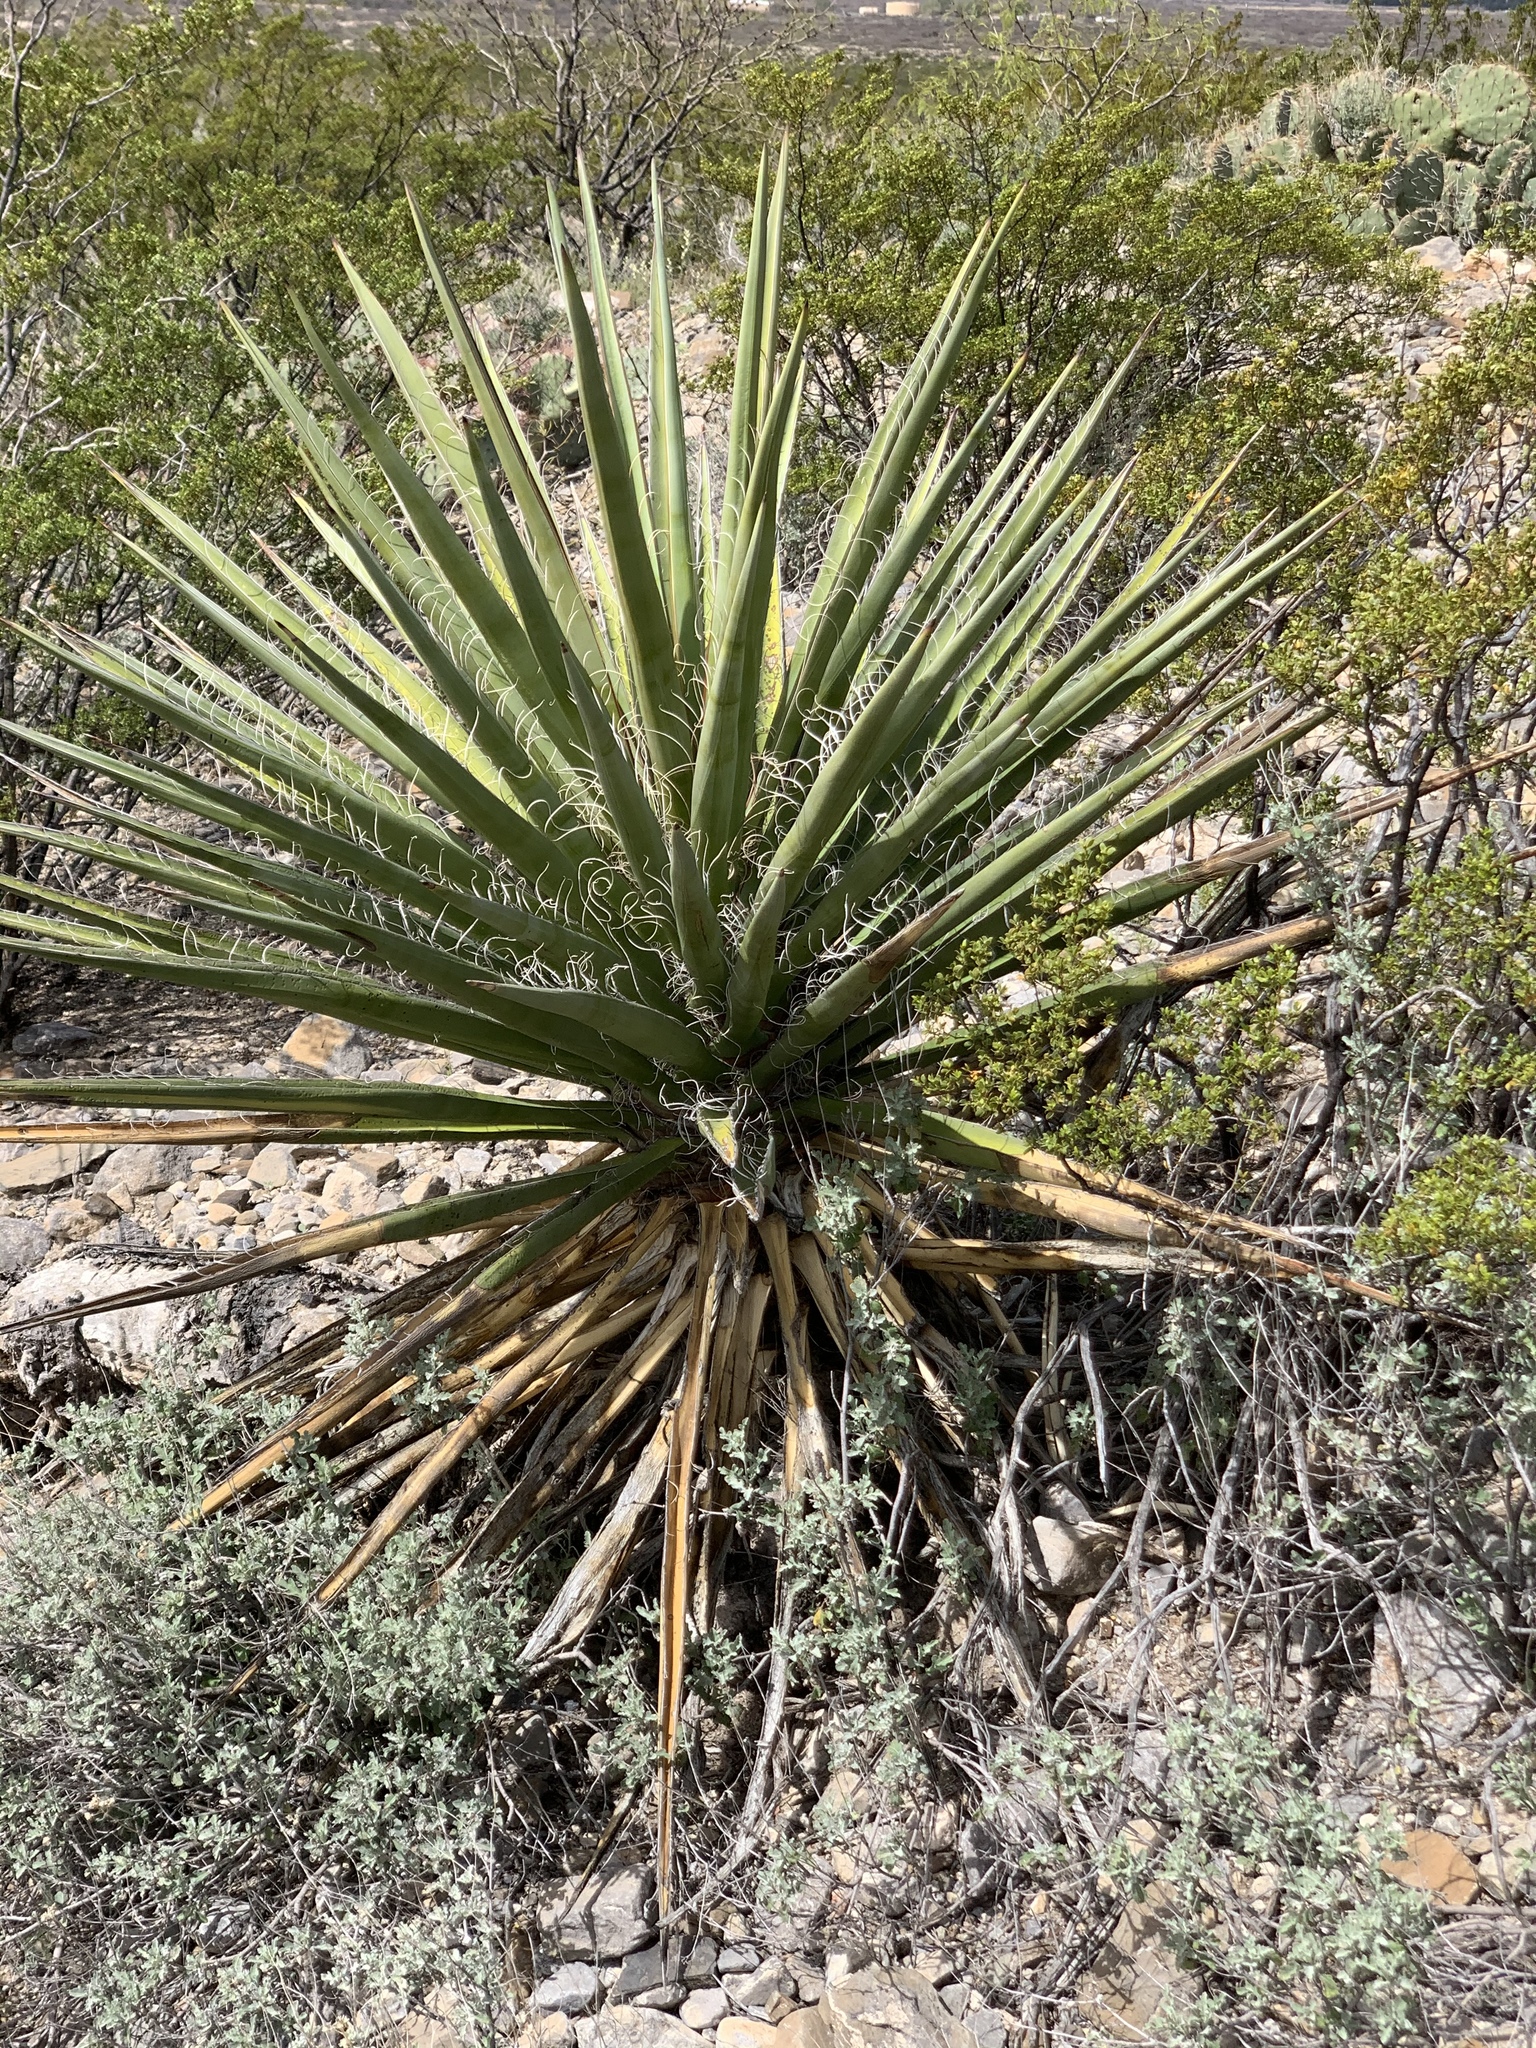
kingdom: Plantae
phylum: Tracheophyta
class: Liliopsida
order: Asparagales
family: Asparagaceae
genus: Yucca
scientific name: Yucca treculiana
